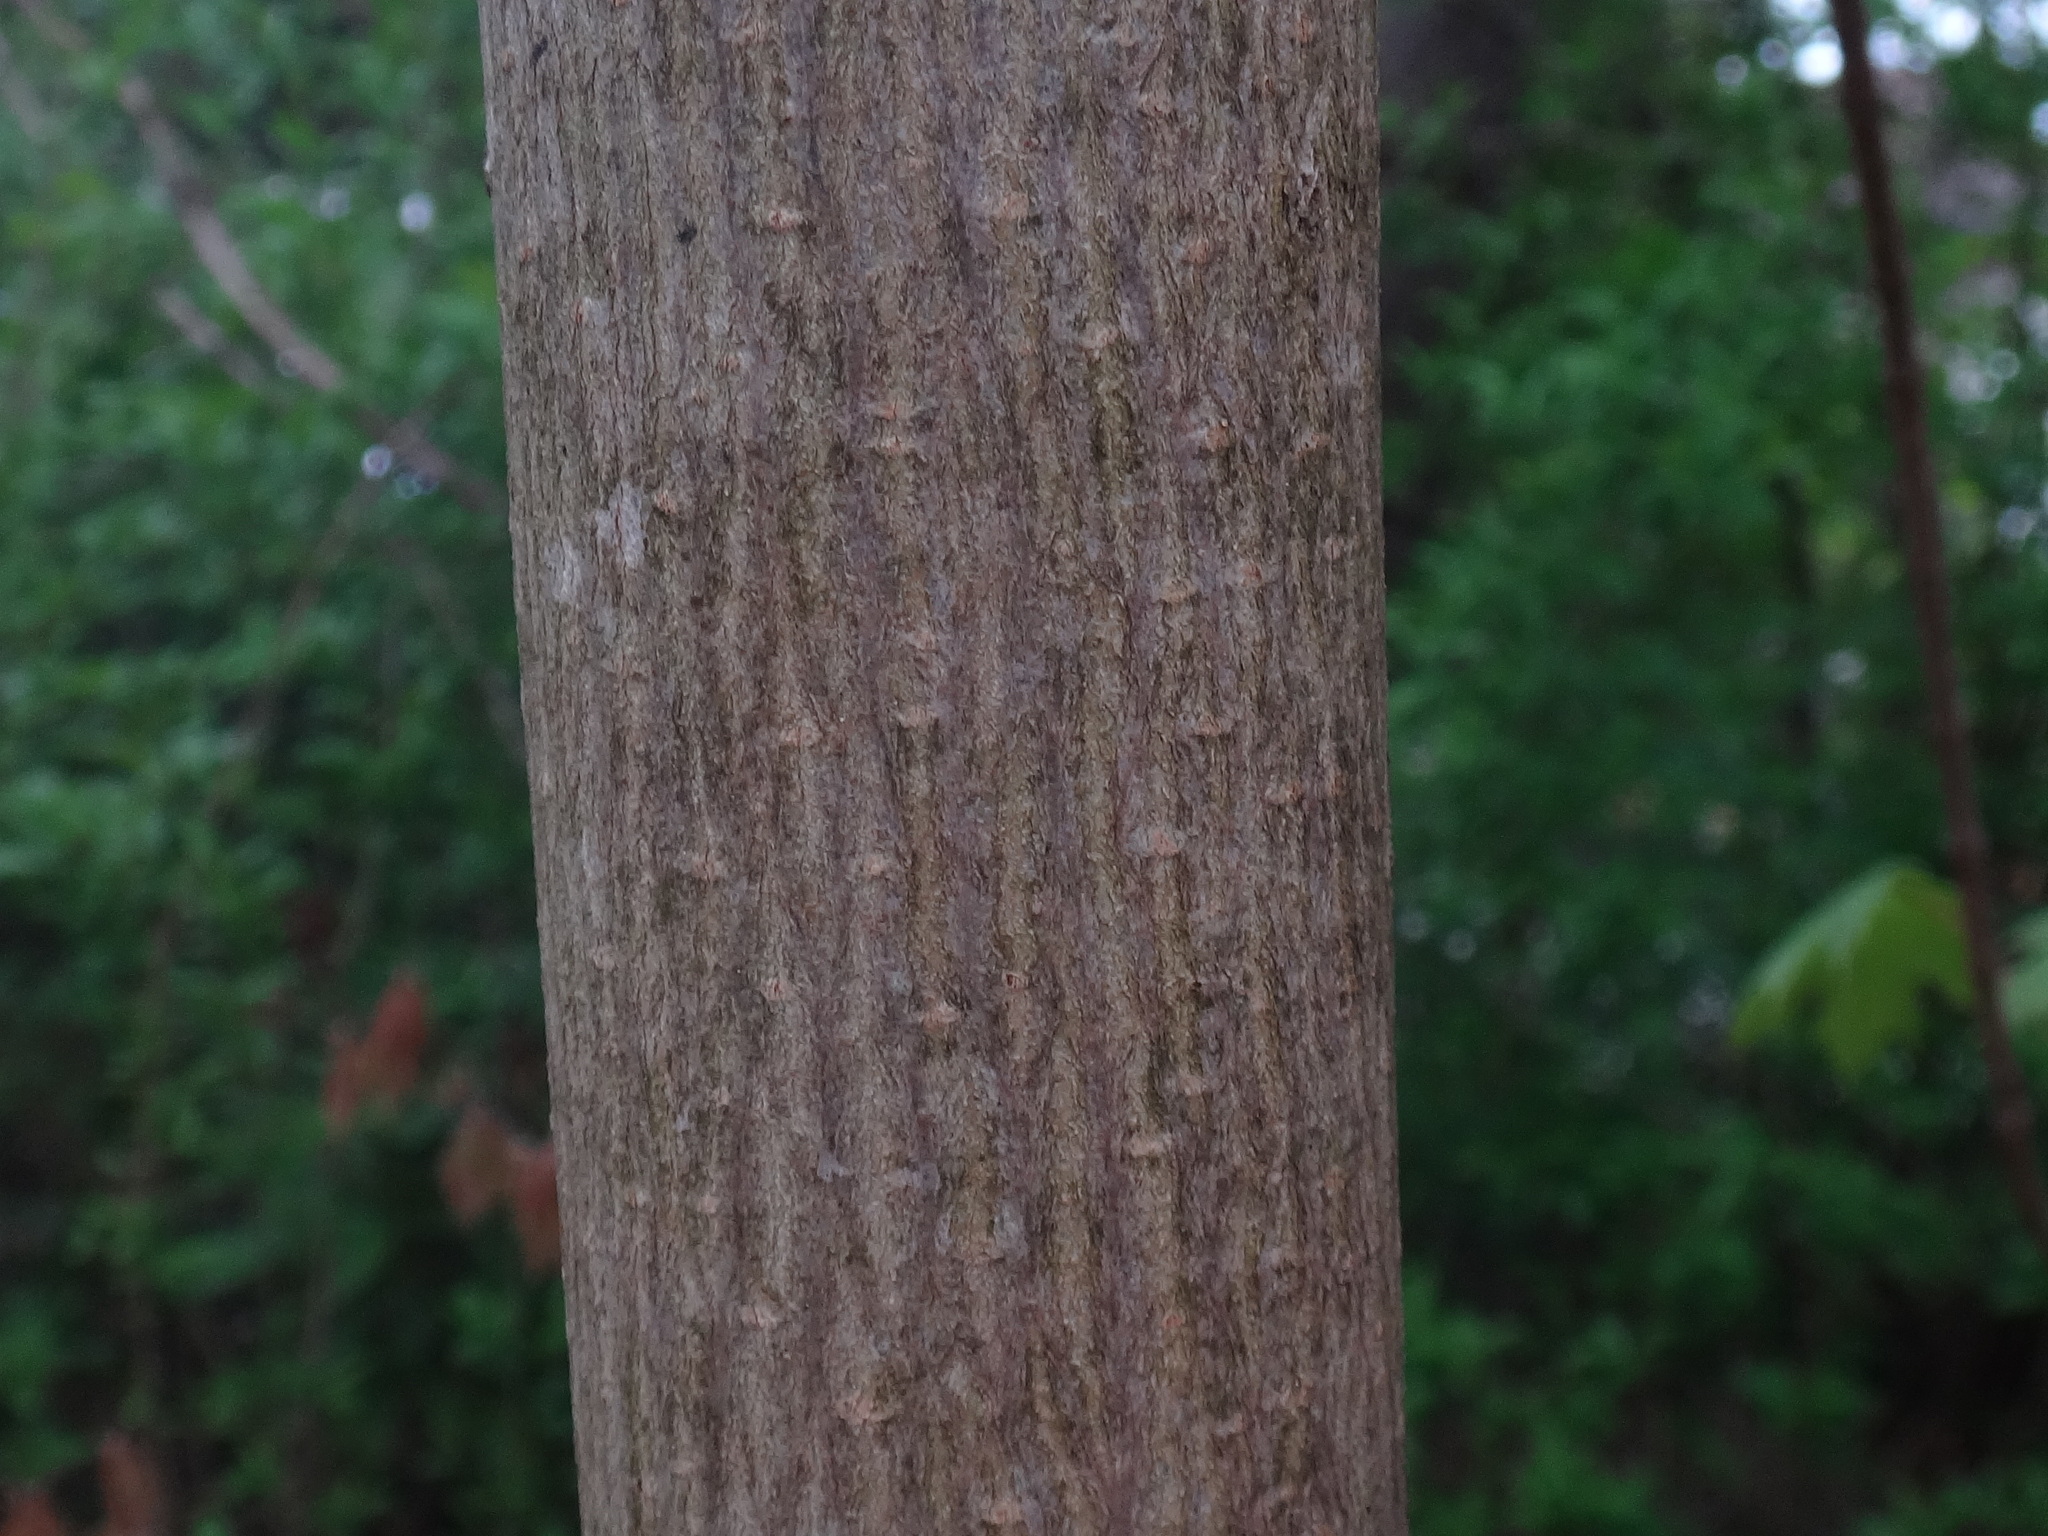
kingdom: Plantae
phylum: Tracheophyta
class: Magnoliopsida
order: Sapindales
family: Sapindaceae
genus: Acer
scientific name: Acer platanoides
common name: Norway maple
